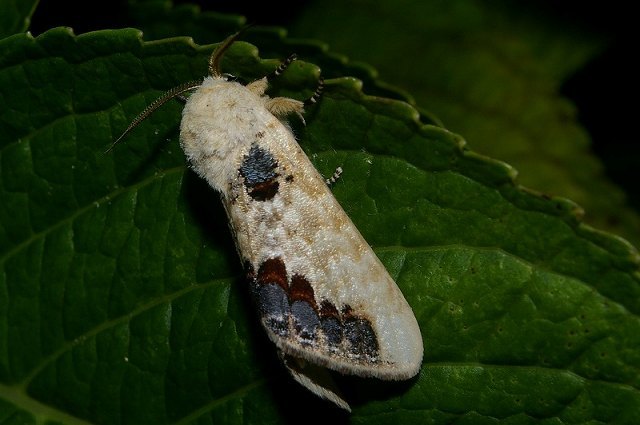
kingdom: Animalia
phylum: Arthropoda
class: Insecta
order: Lepidoptera
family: Notodontidae
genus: Phalera
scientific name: Phalera flavescens
